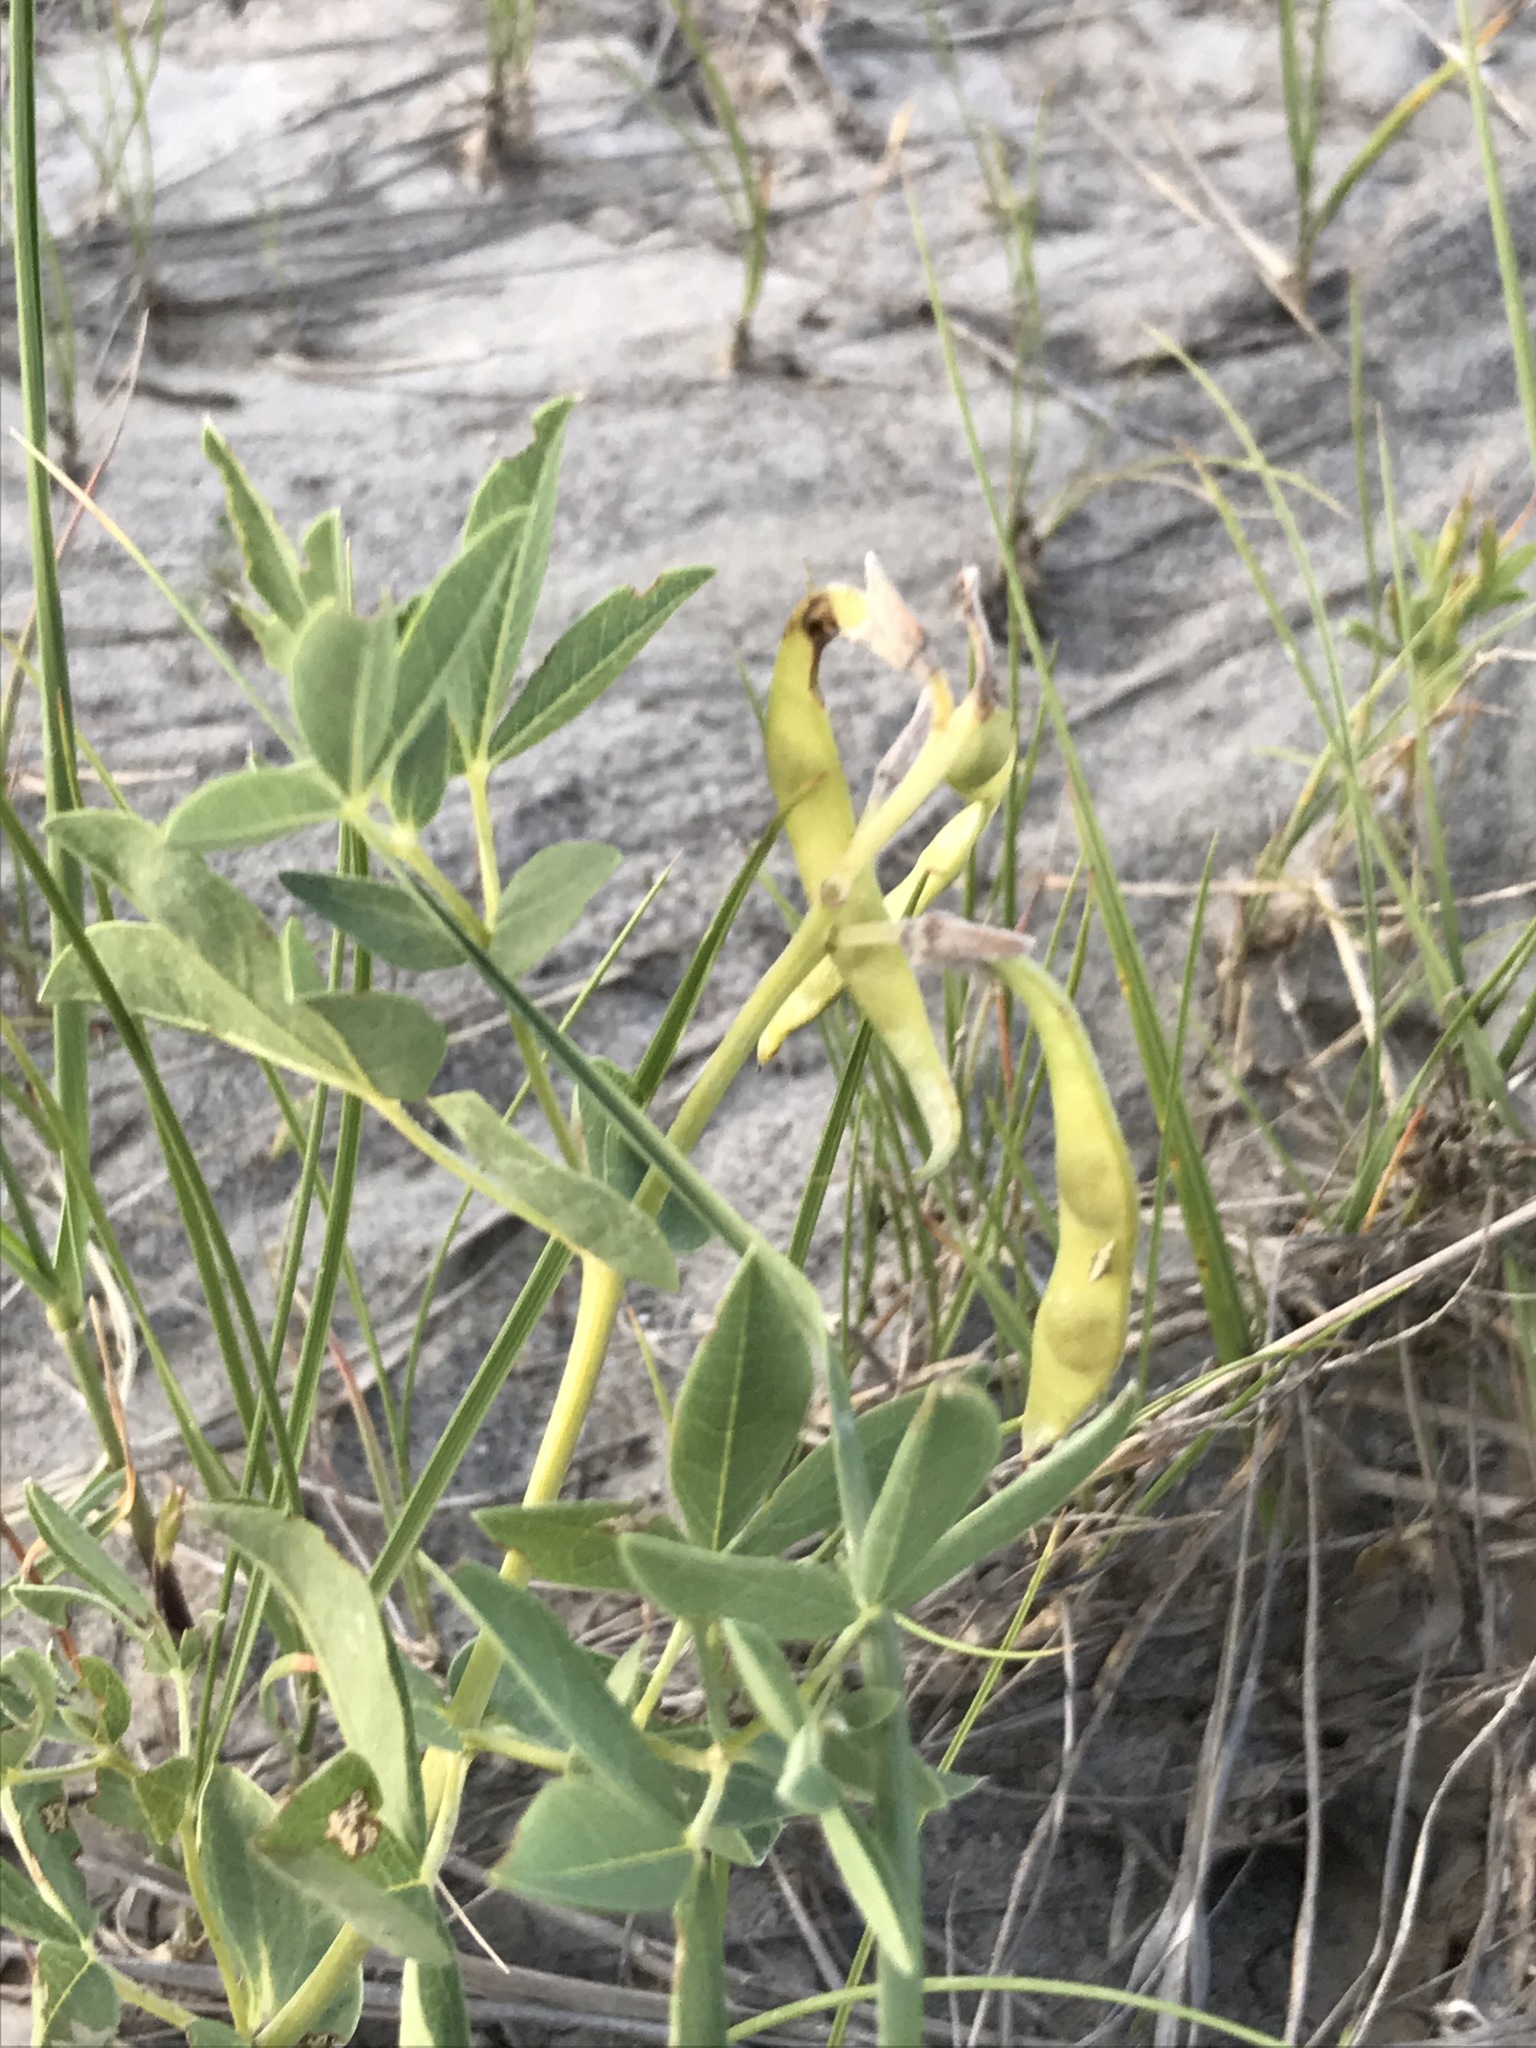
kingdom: Plantae
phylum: Tracheophyta
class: Magnoliopsida
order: Fabales
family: Fabaceae
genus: Thermopsis
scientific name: Thermopsis rhombifolia
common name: Circle-pod-pea
